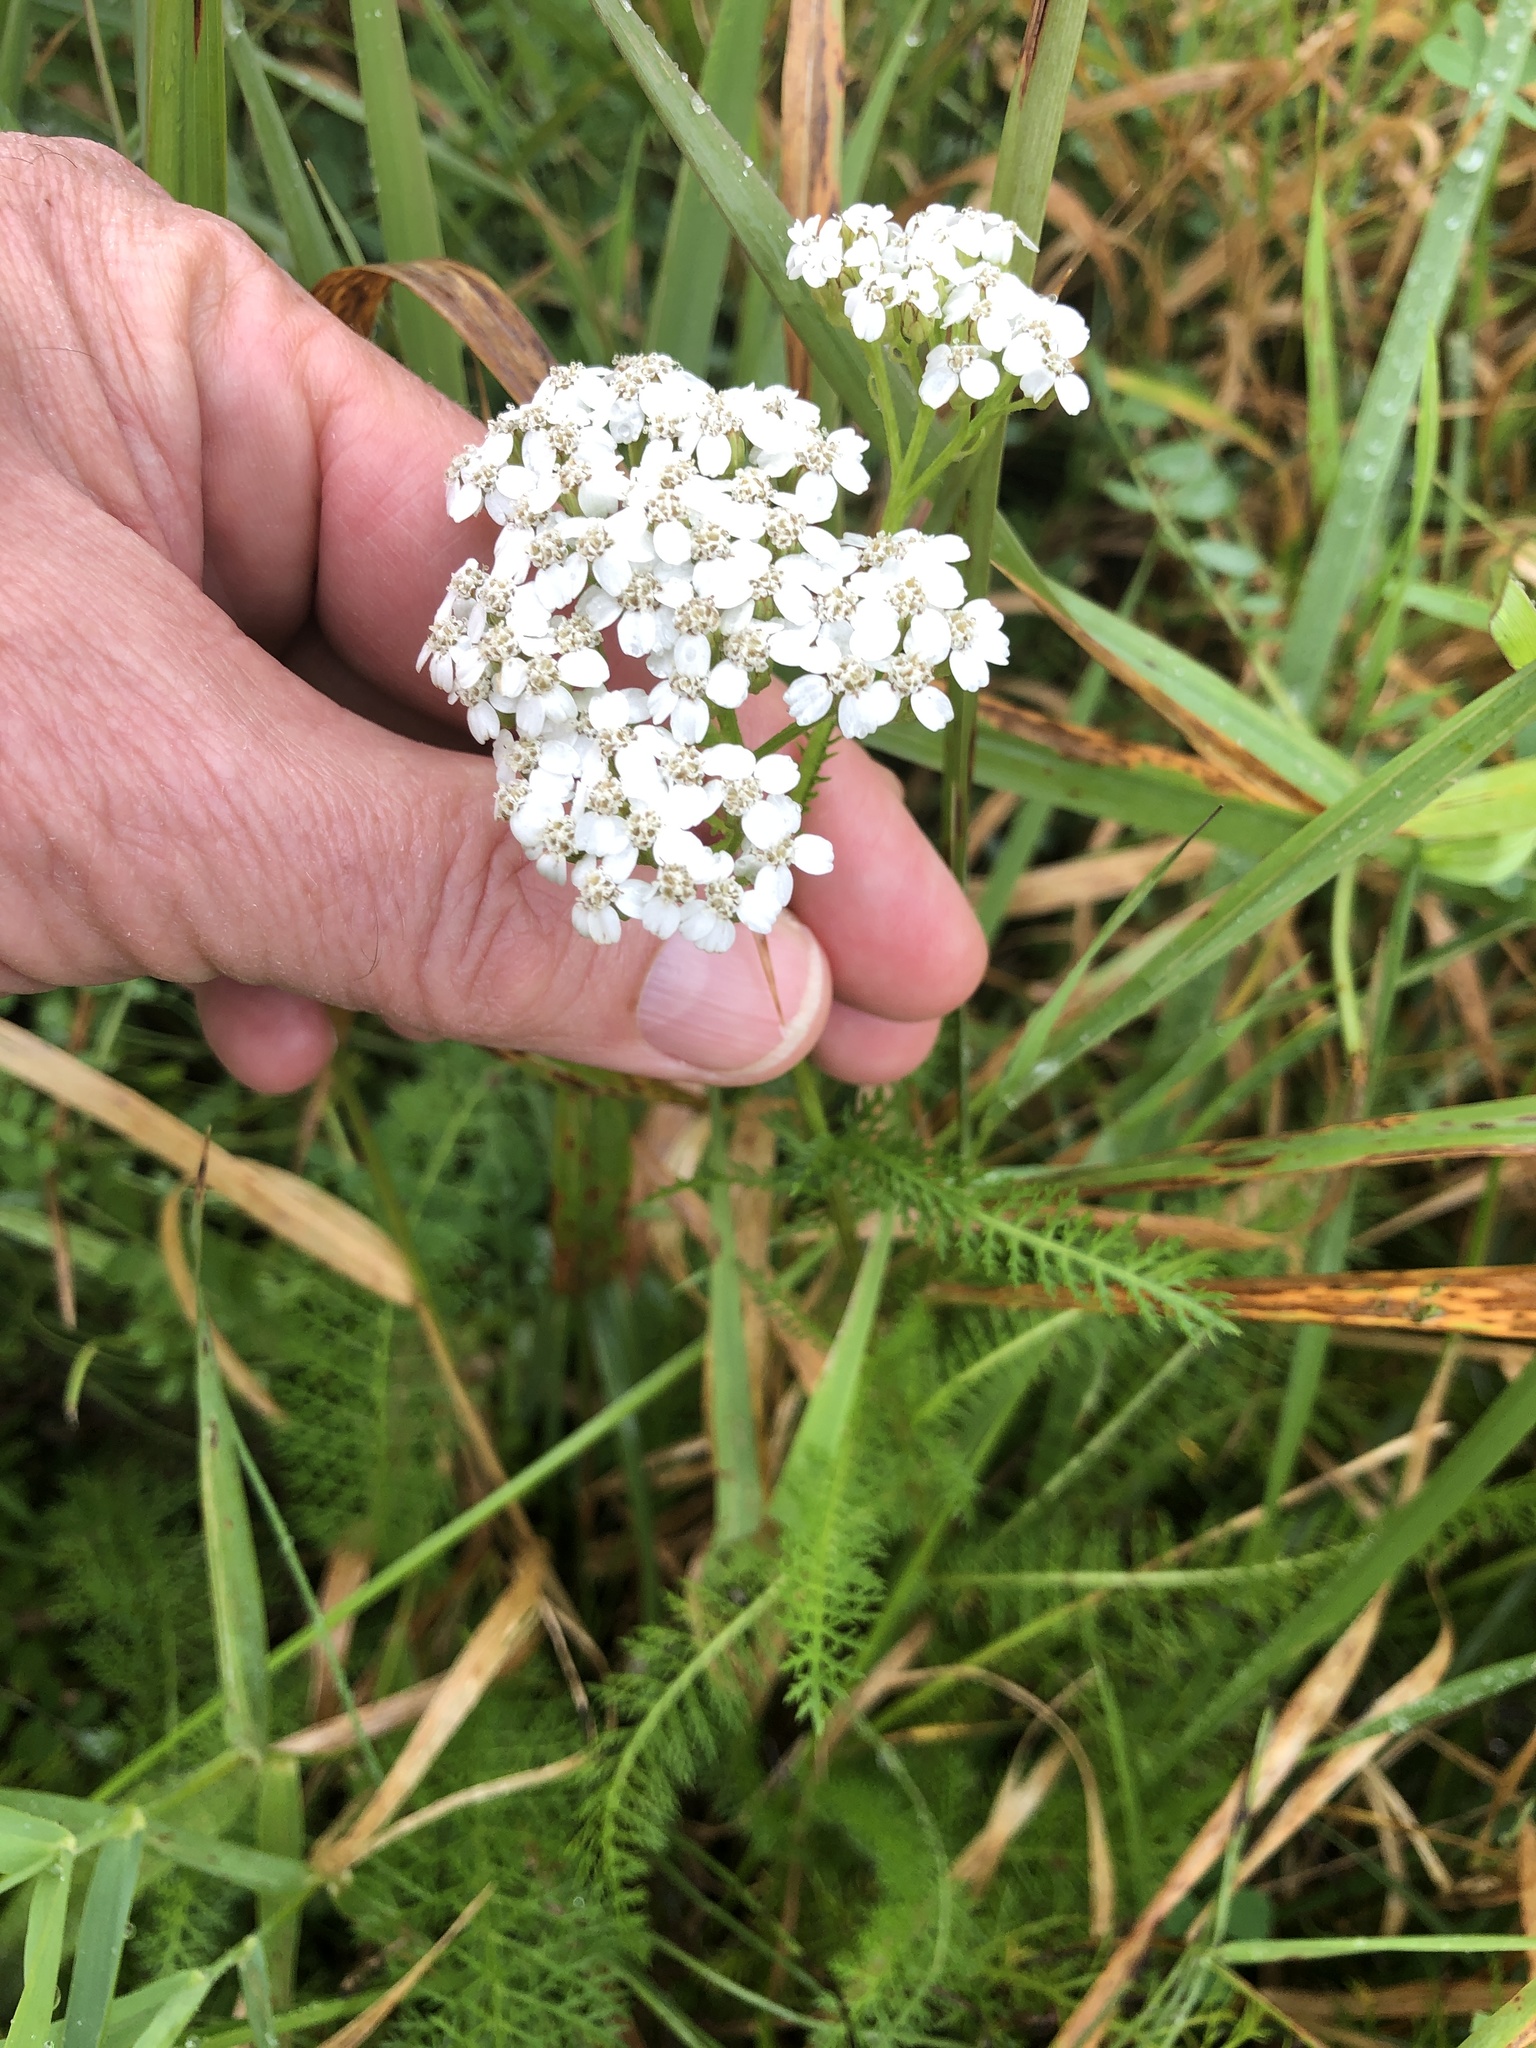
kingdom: Plantae
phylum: Tracheophyta
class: Magnoliopsida
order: Asterales
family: Asteraceae
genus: Achillea
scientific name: Achillea millefolium
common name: Yarrow
